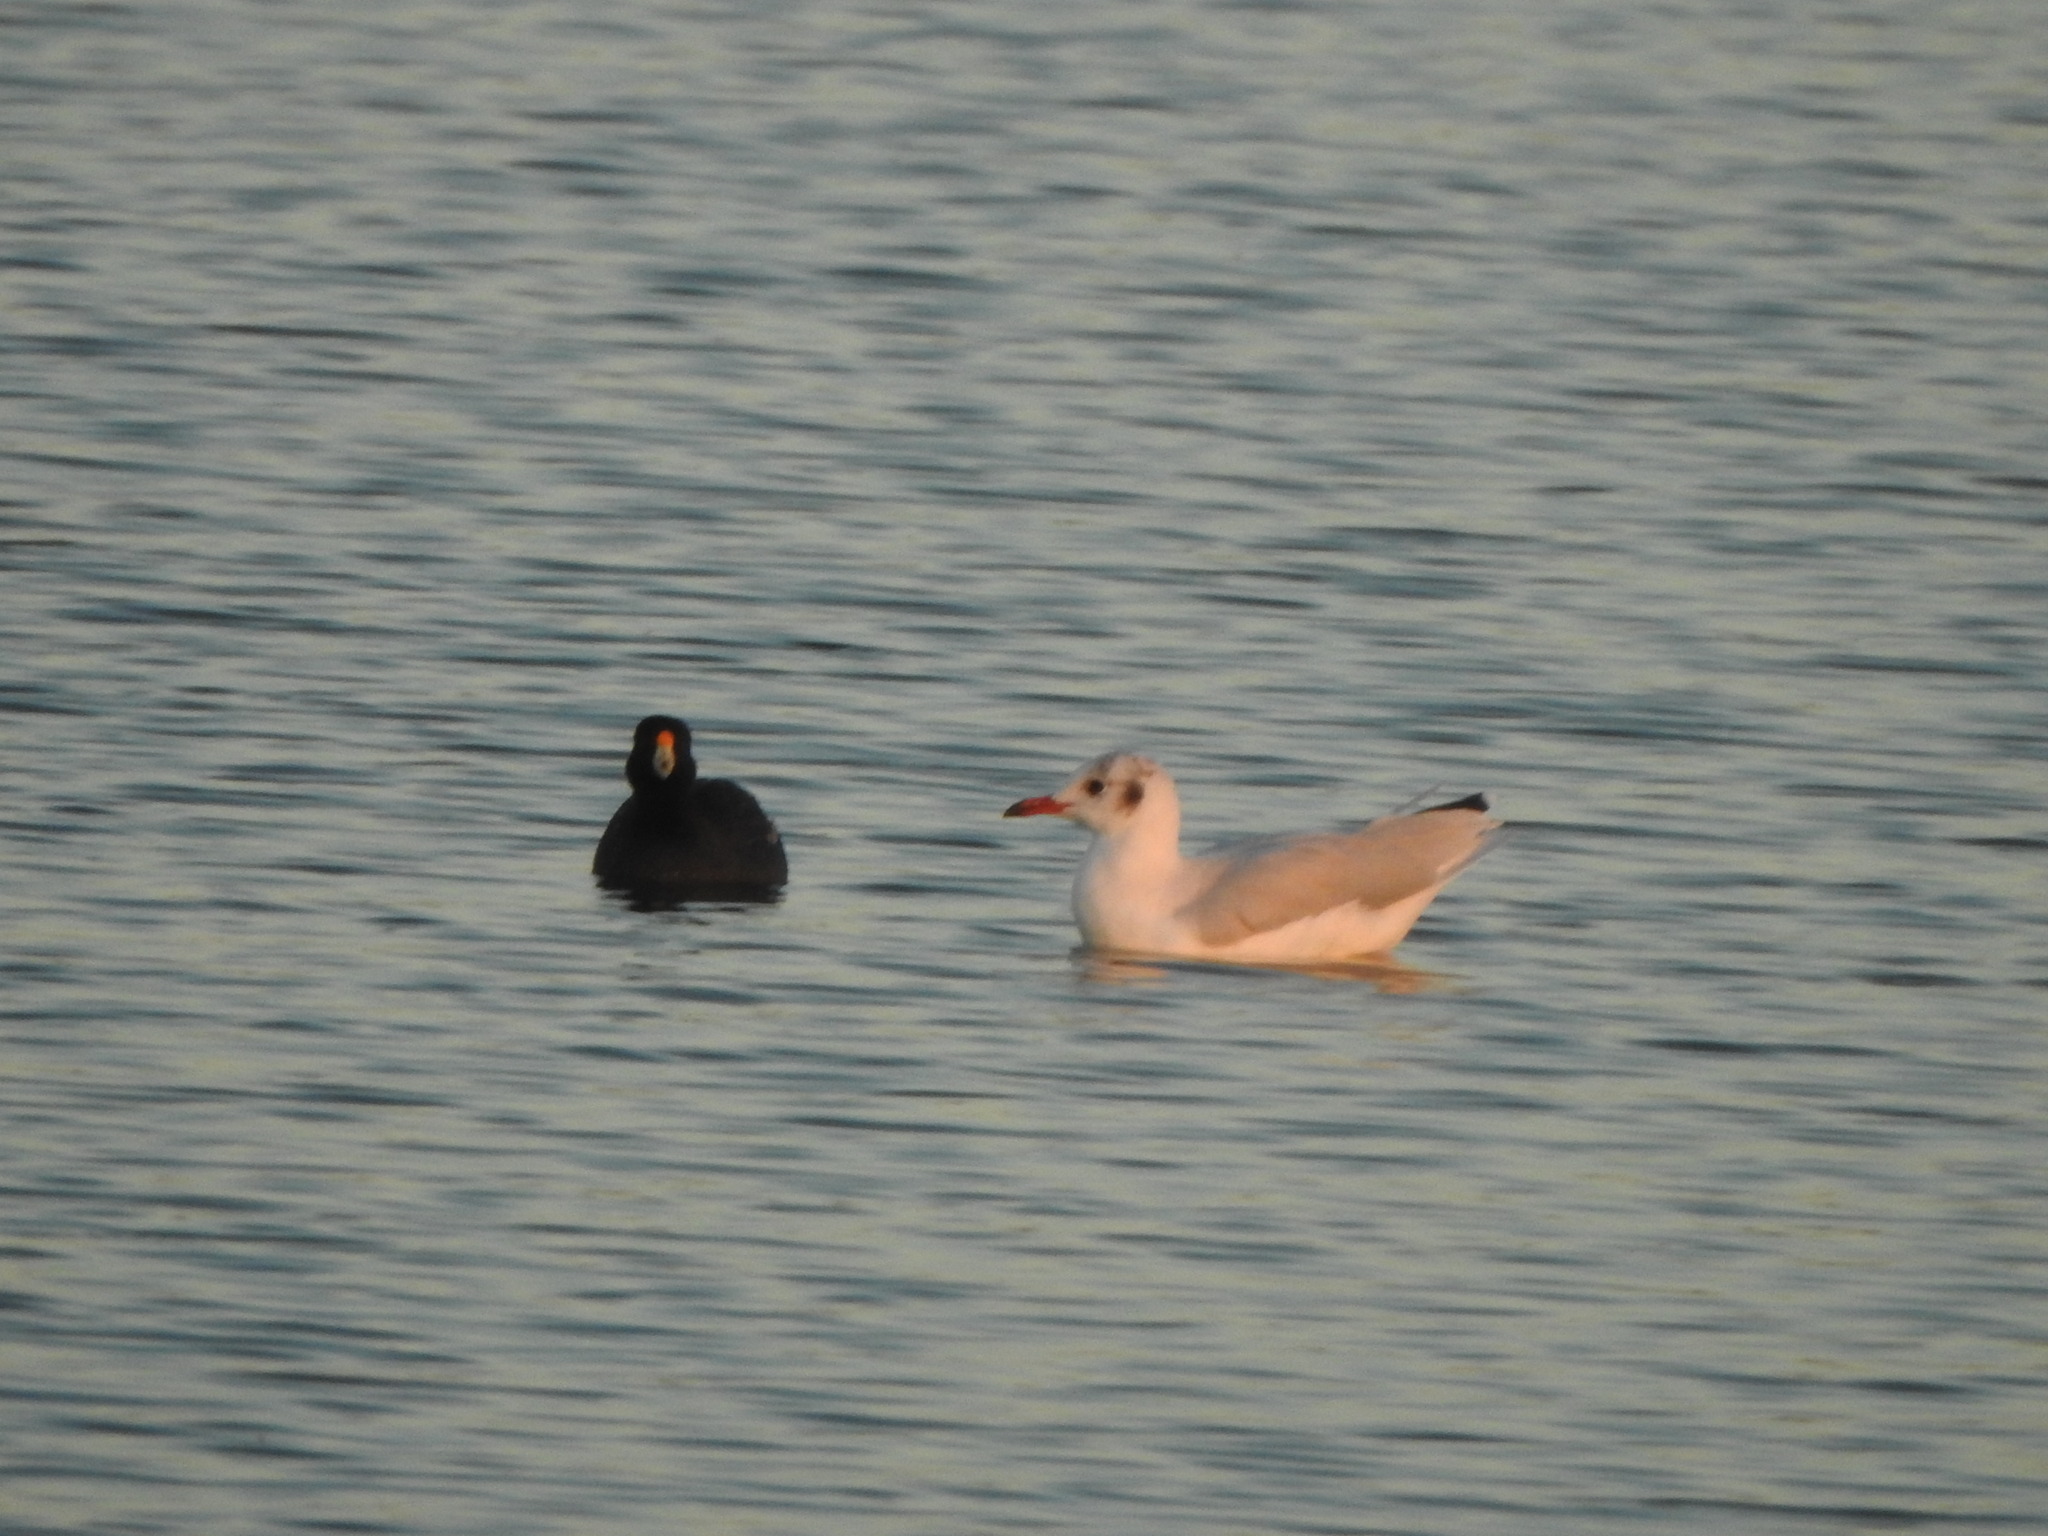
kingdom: Animalia
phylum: Chordata
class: Aves
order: Charadriiformes
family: Laridae
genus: Chroicocephalus
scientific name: Chroicocephalus maculipennis
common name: Brown-hooded gull
